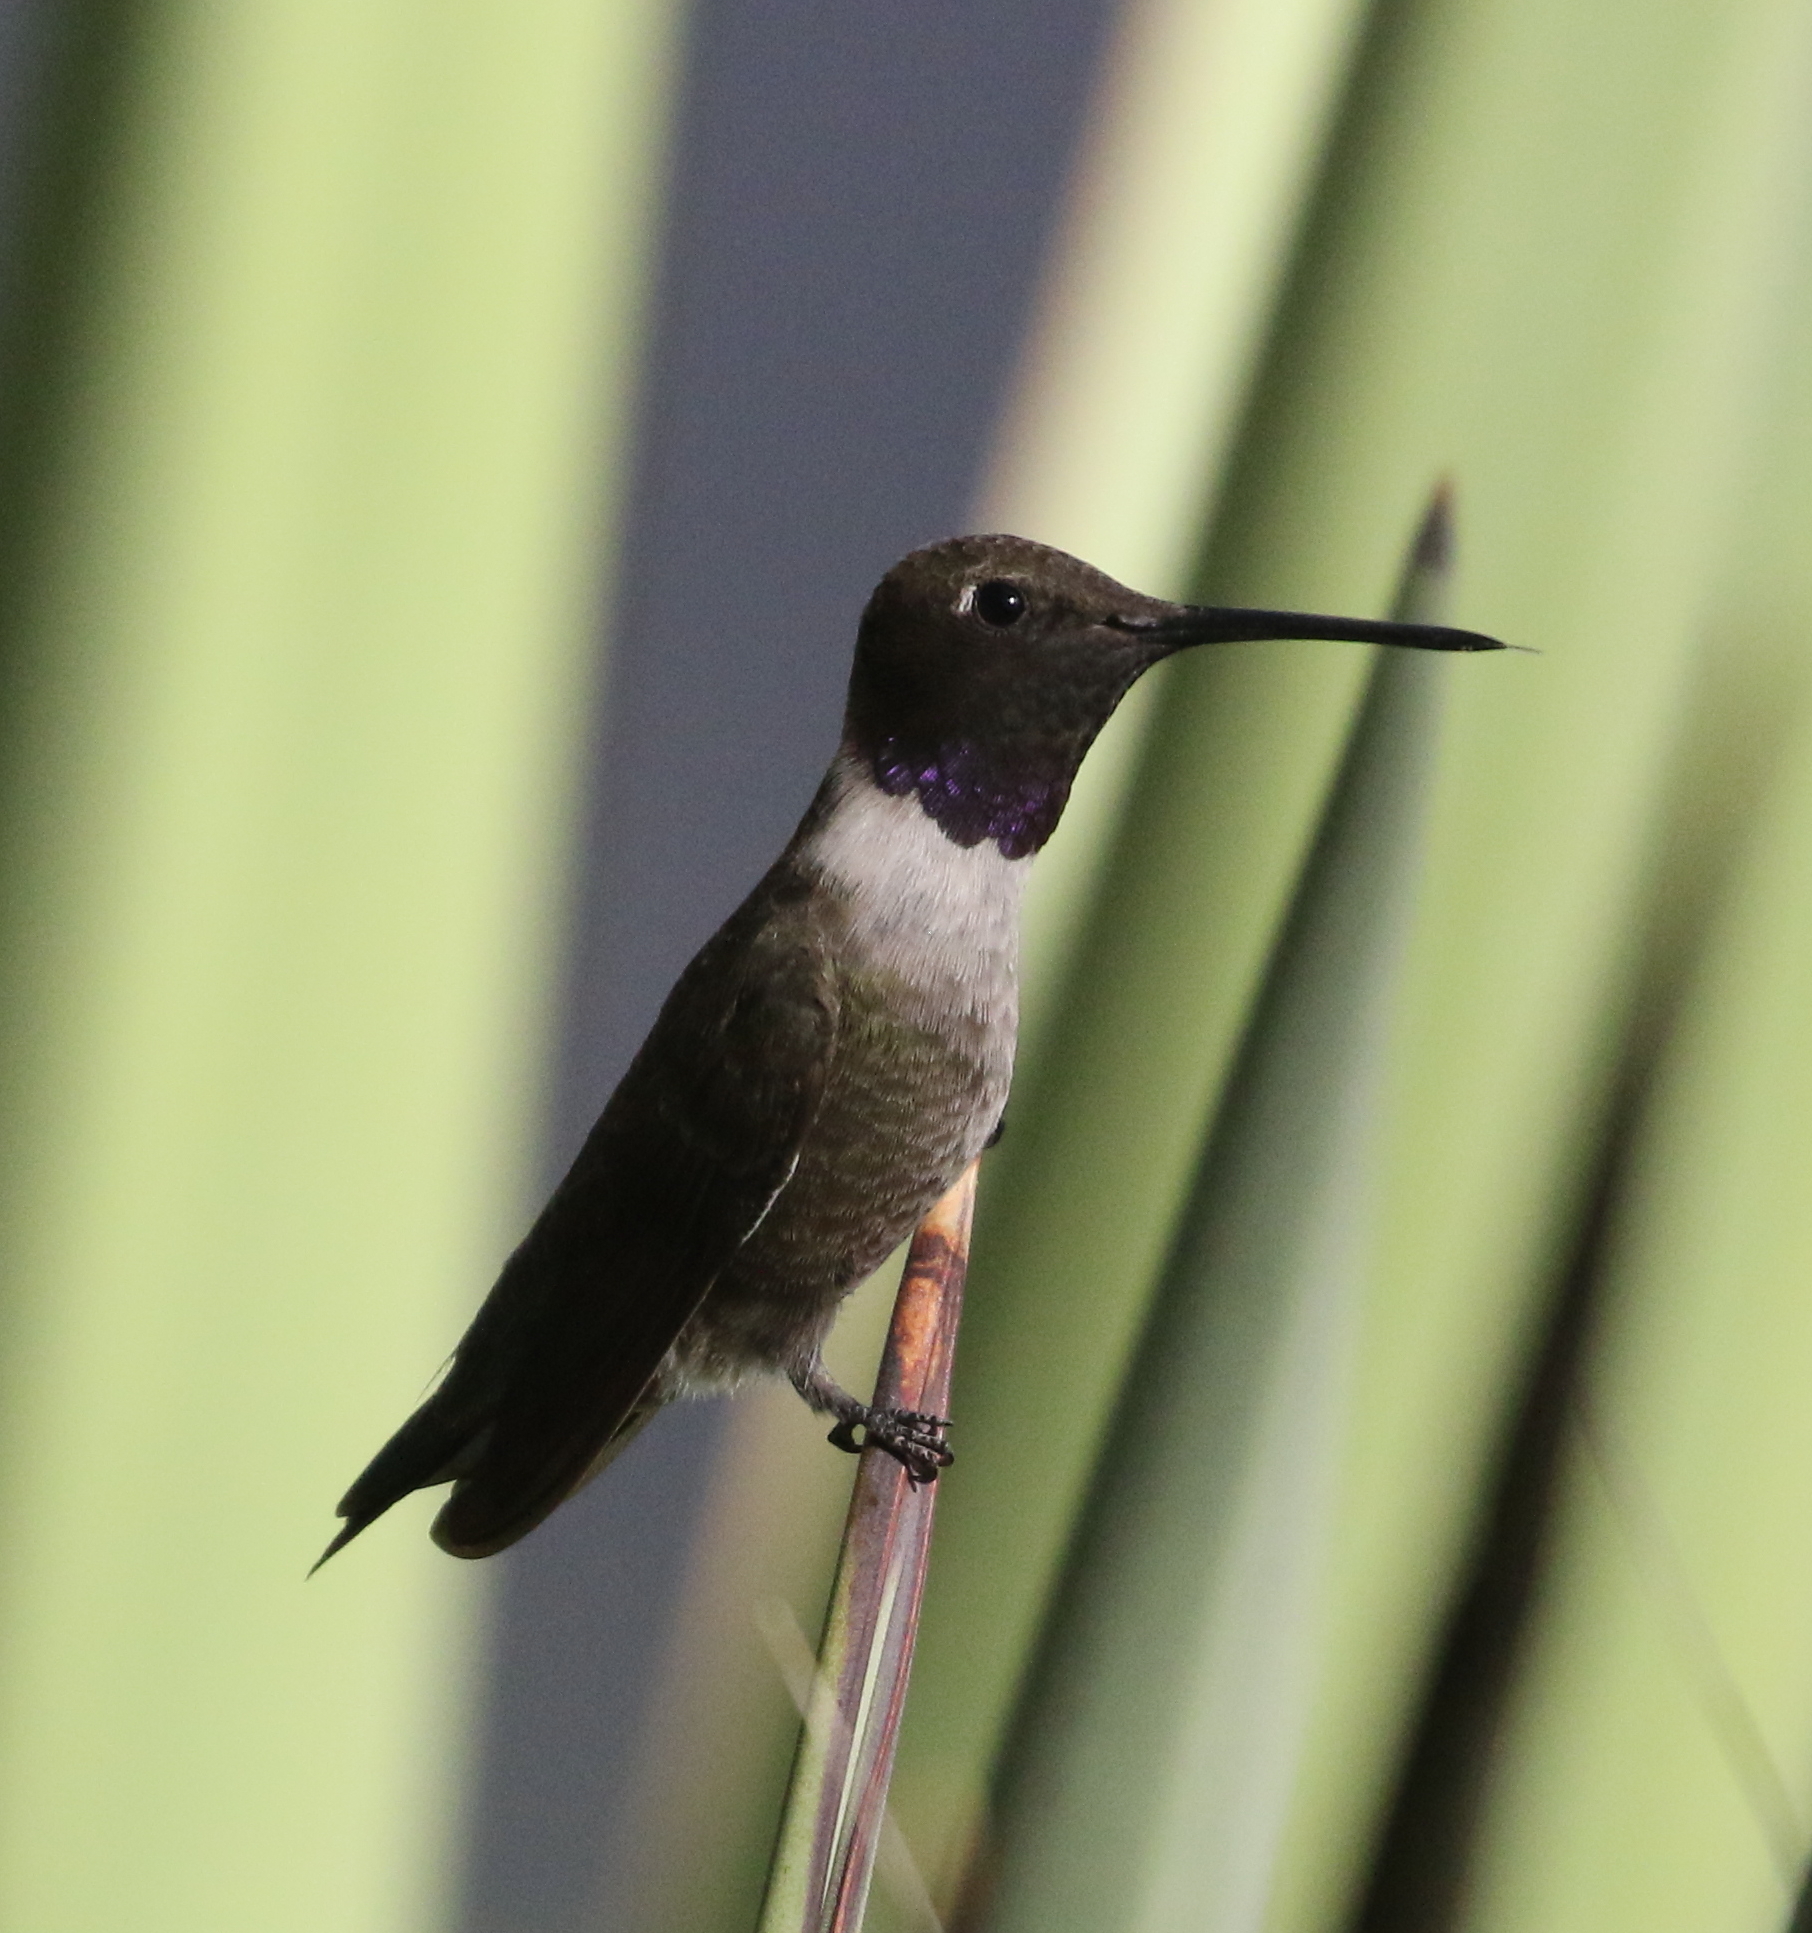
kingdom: Animalia
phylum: Chordata
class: Aves
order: Apodiformes
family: Trochilidae
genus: Archilochus
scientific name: Archilochus alexandri
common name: Black-chinned hummingbird
